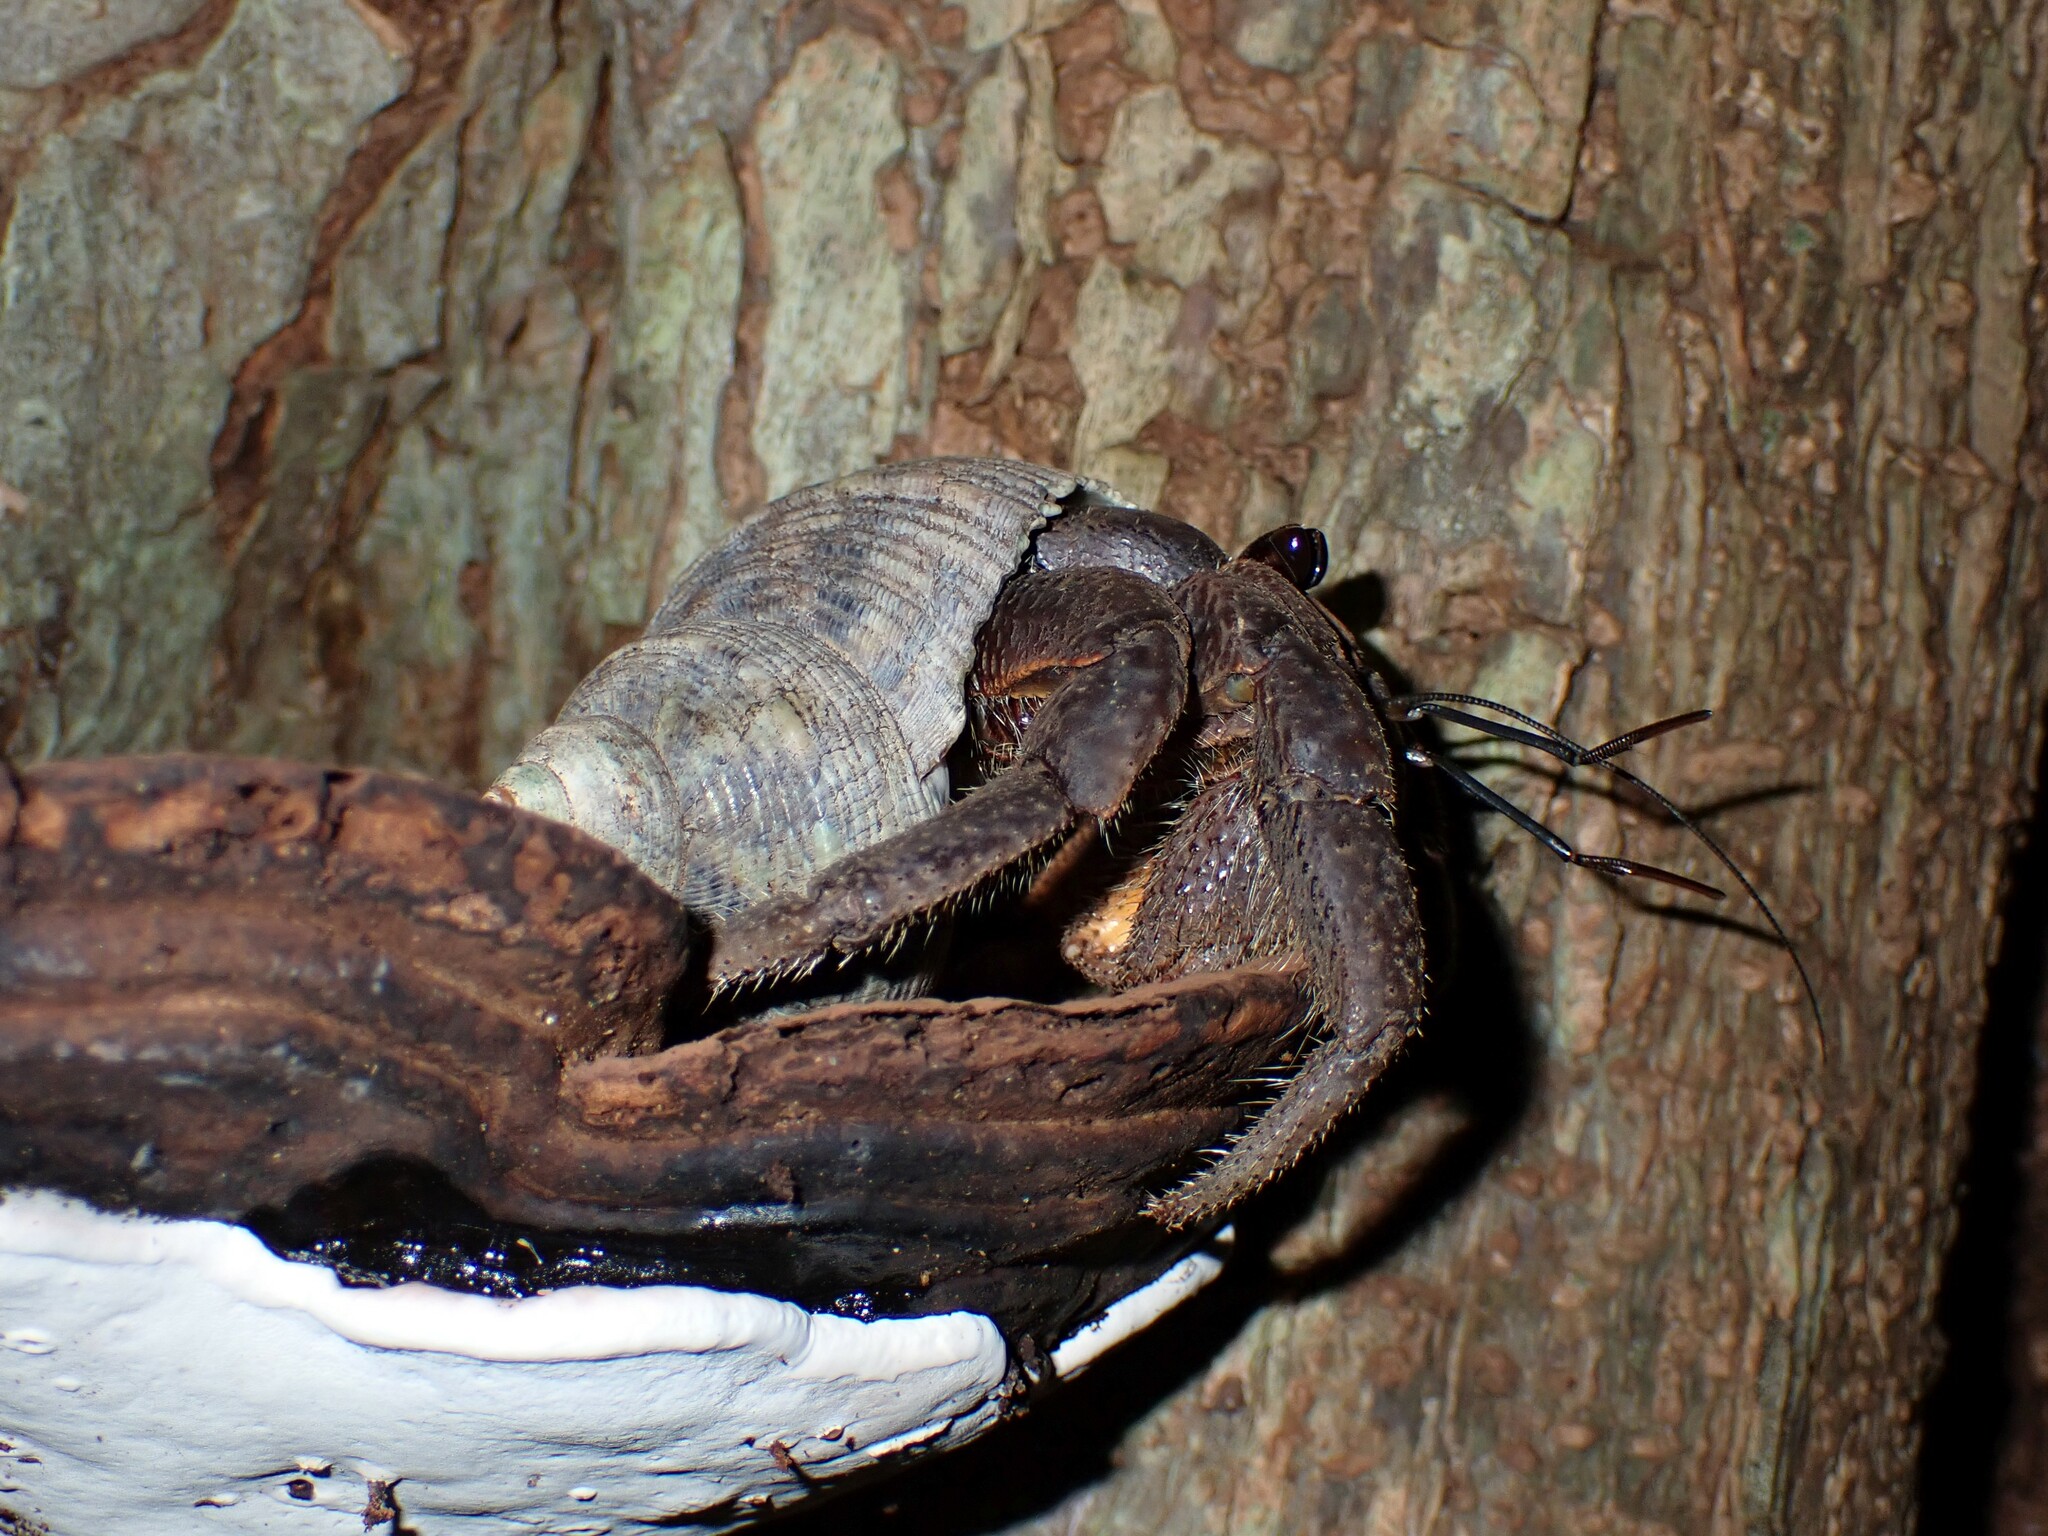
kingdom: Animalia
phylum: Arthropoda
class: Malacostraca
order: Decapoda
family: Coenobitidae
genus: Coenobita
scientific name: Coenobita spinosus
